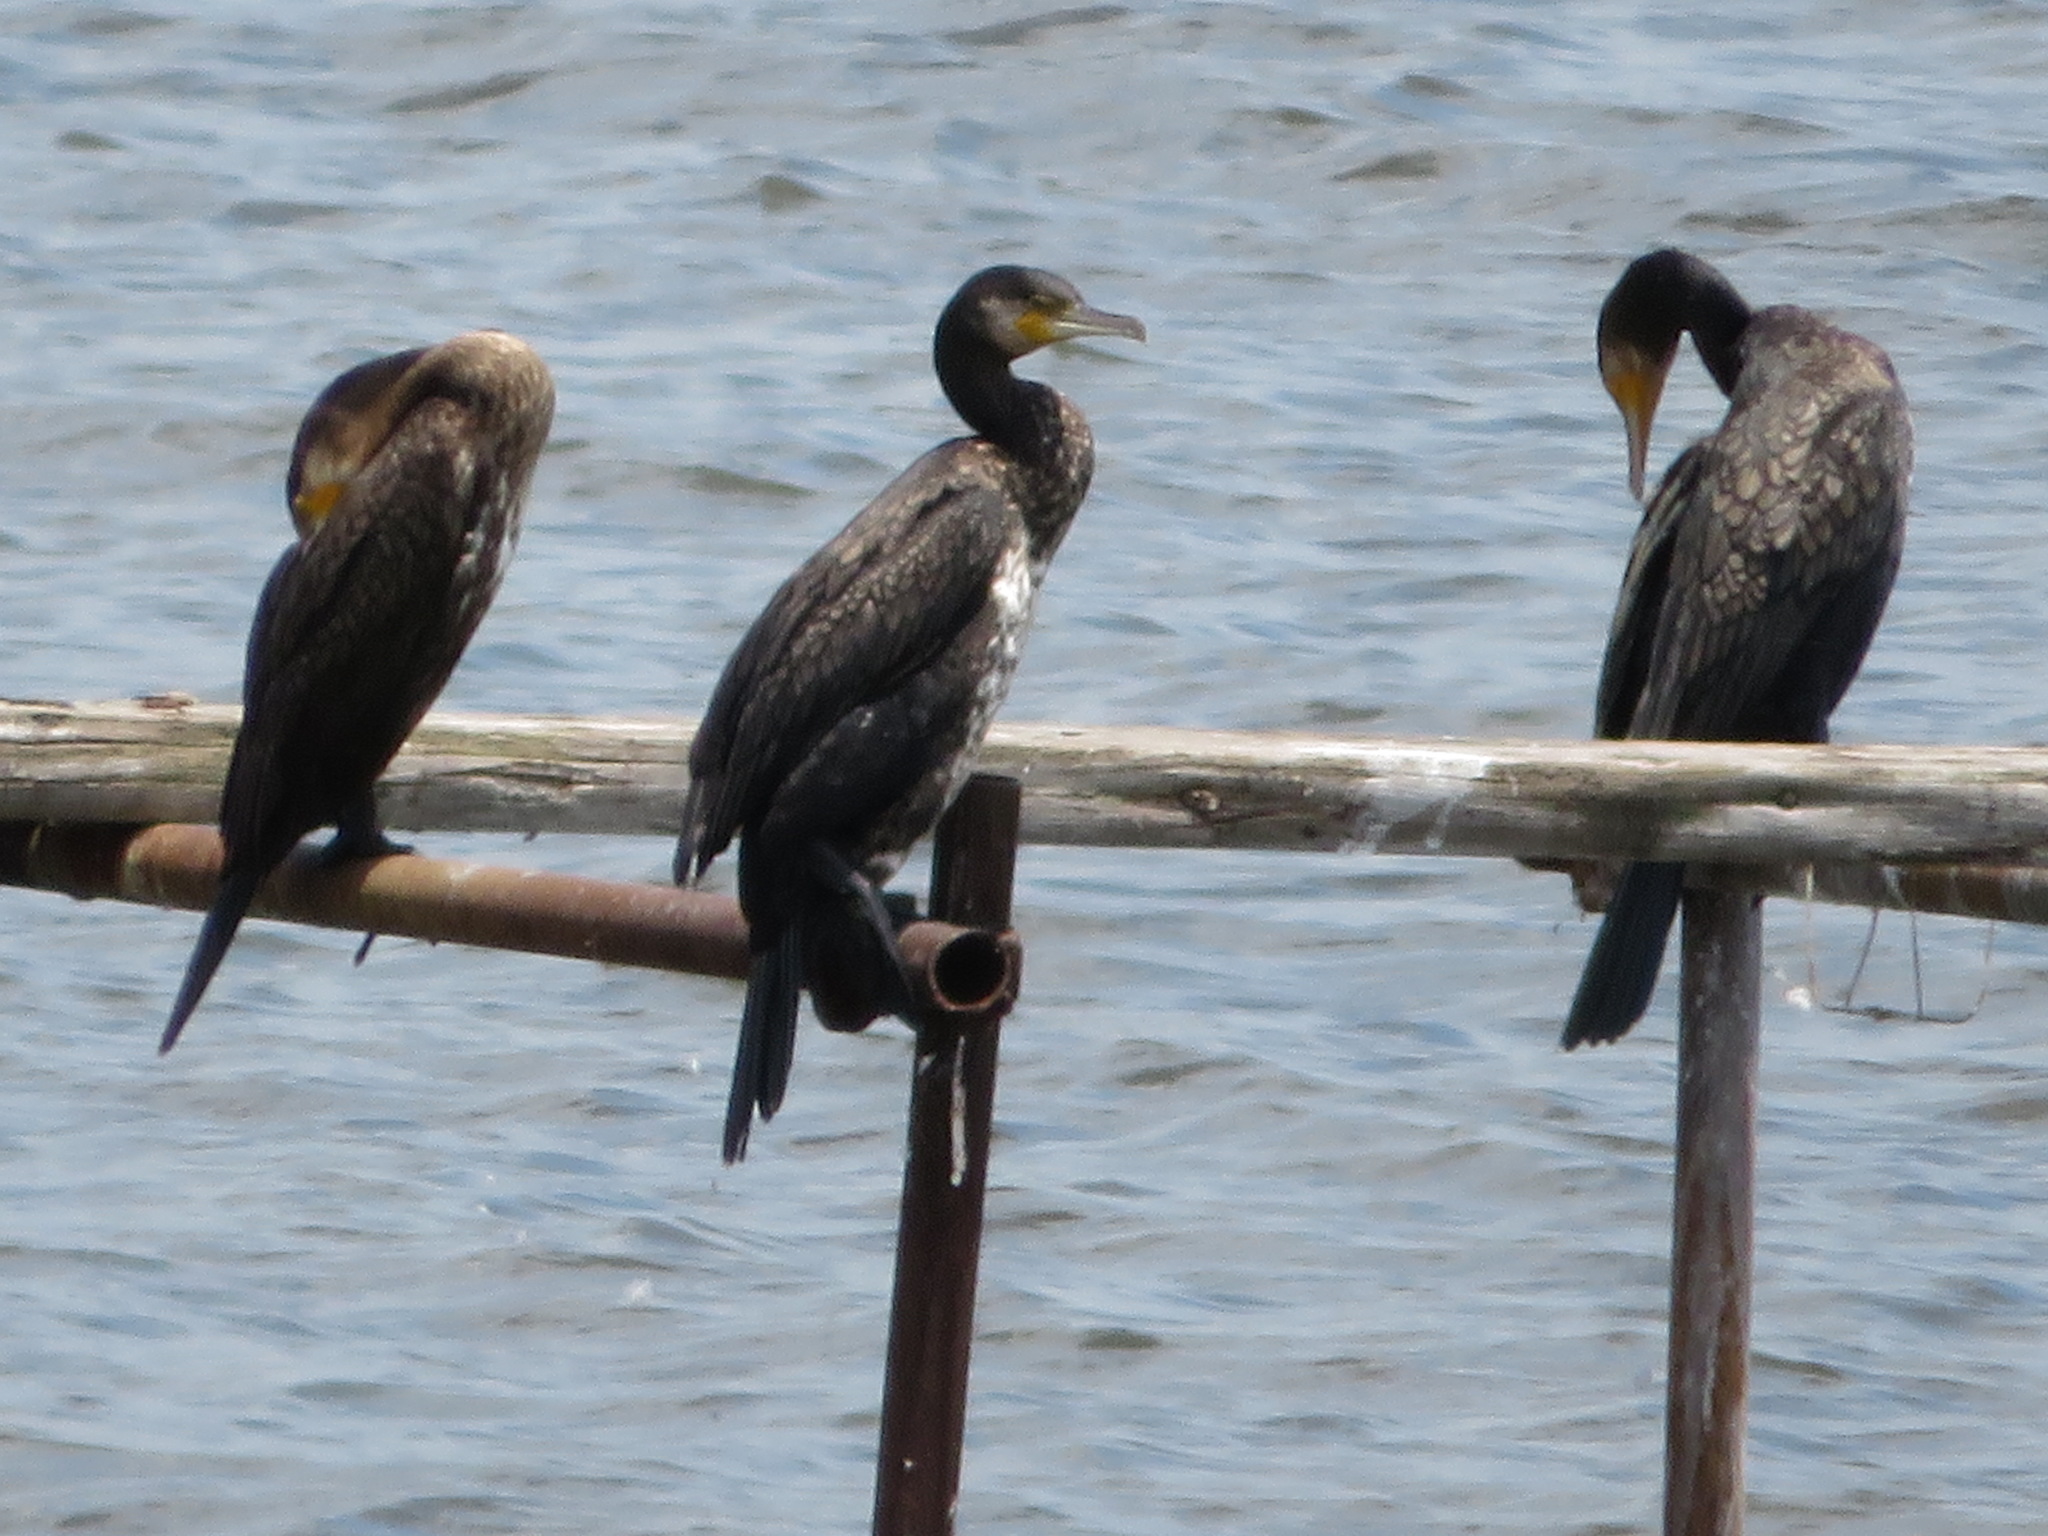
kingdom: Animalia
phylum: Chordata
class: Aves
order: Suliformes
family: Phalacrocoracidae
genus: Phalacrocorax
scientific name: Phalacrocorax carbo
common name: Great cormorant
